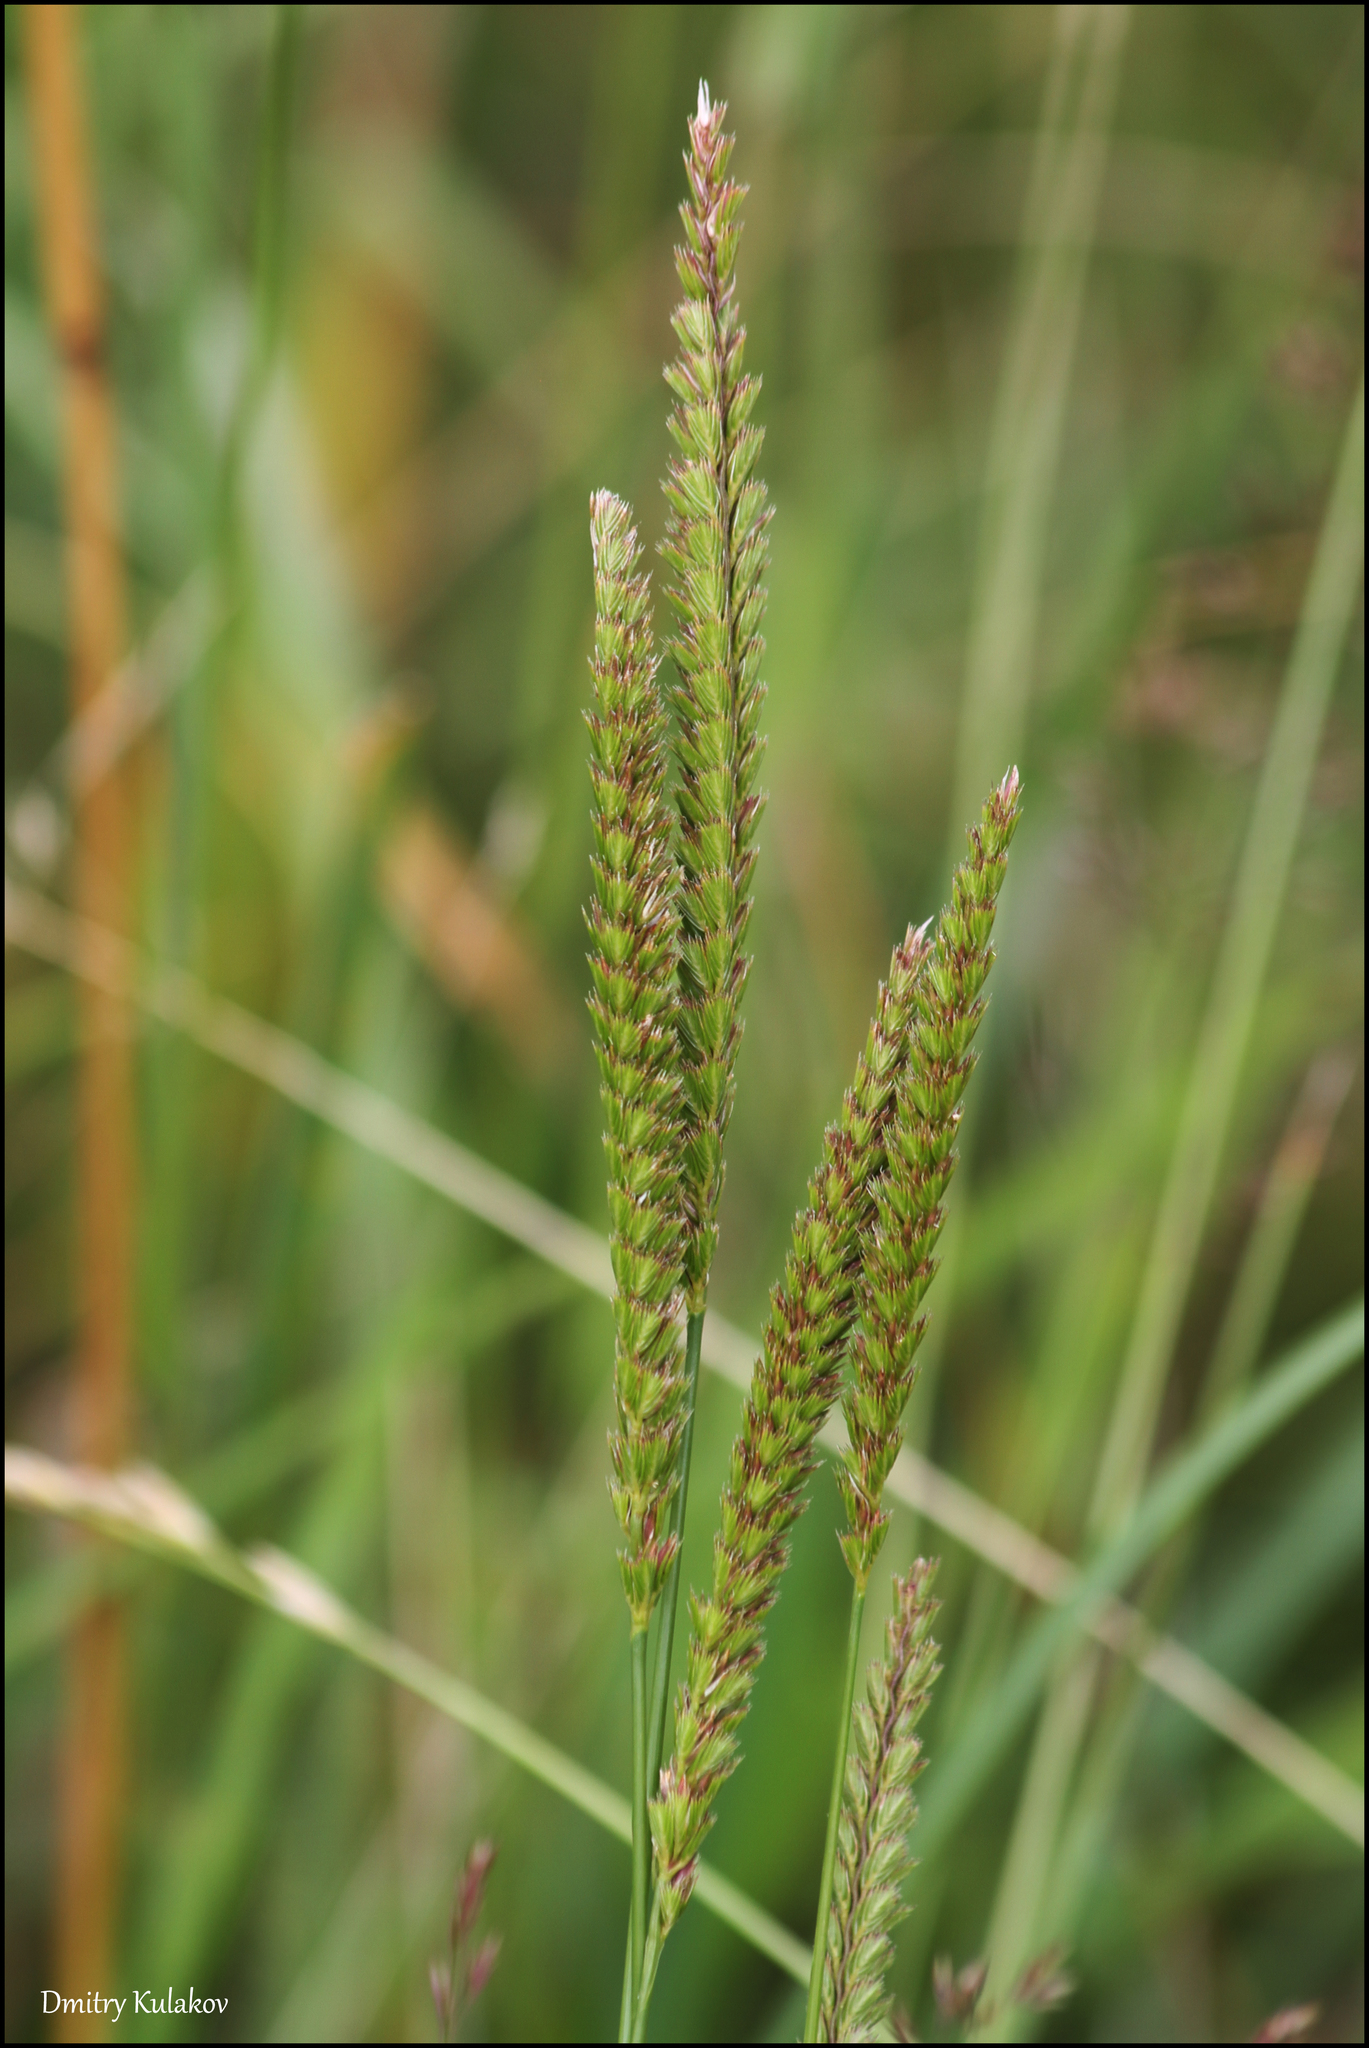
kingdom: Plantae
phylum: Tracheophyta
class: Liliopsida
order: Poales
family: Poaceae
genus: Cynosurus
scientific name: Cynosurus cristatus
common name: Crested dog's-tail
